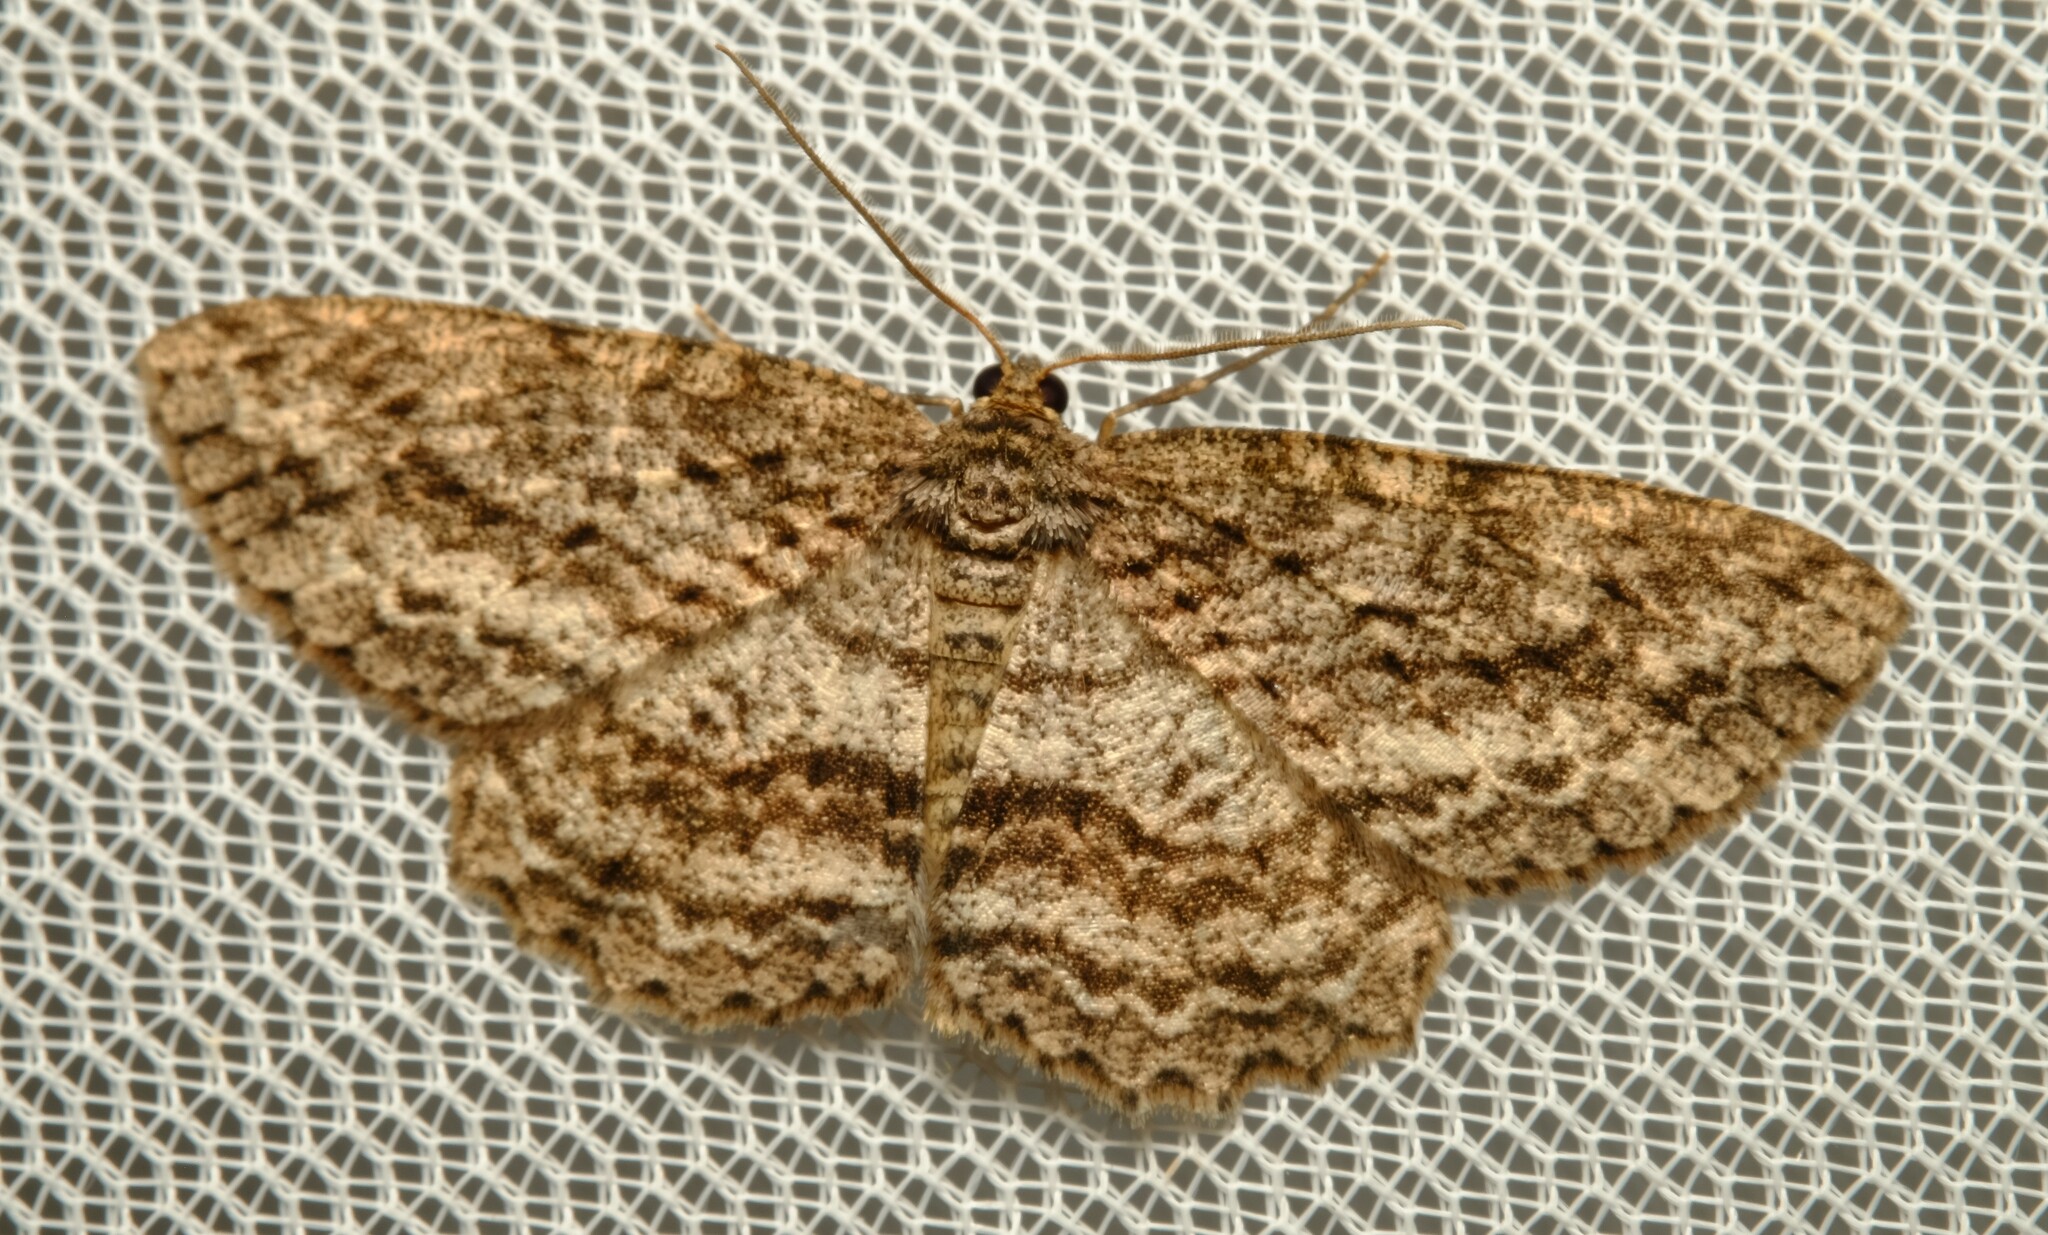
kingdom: Animalia
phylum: Arthropoda
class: Insecta
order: Lepidoptera
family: Geometridae
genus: Ectropis
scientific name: Ectropis fractaria
